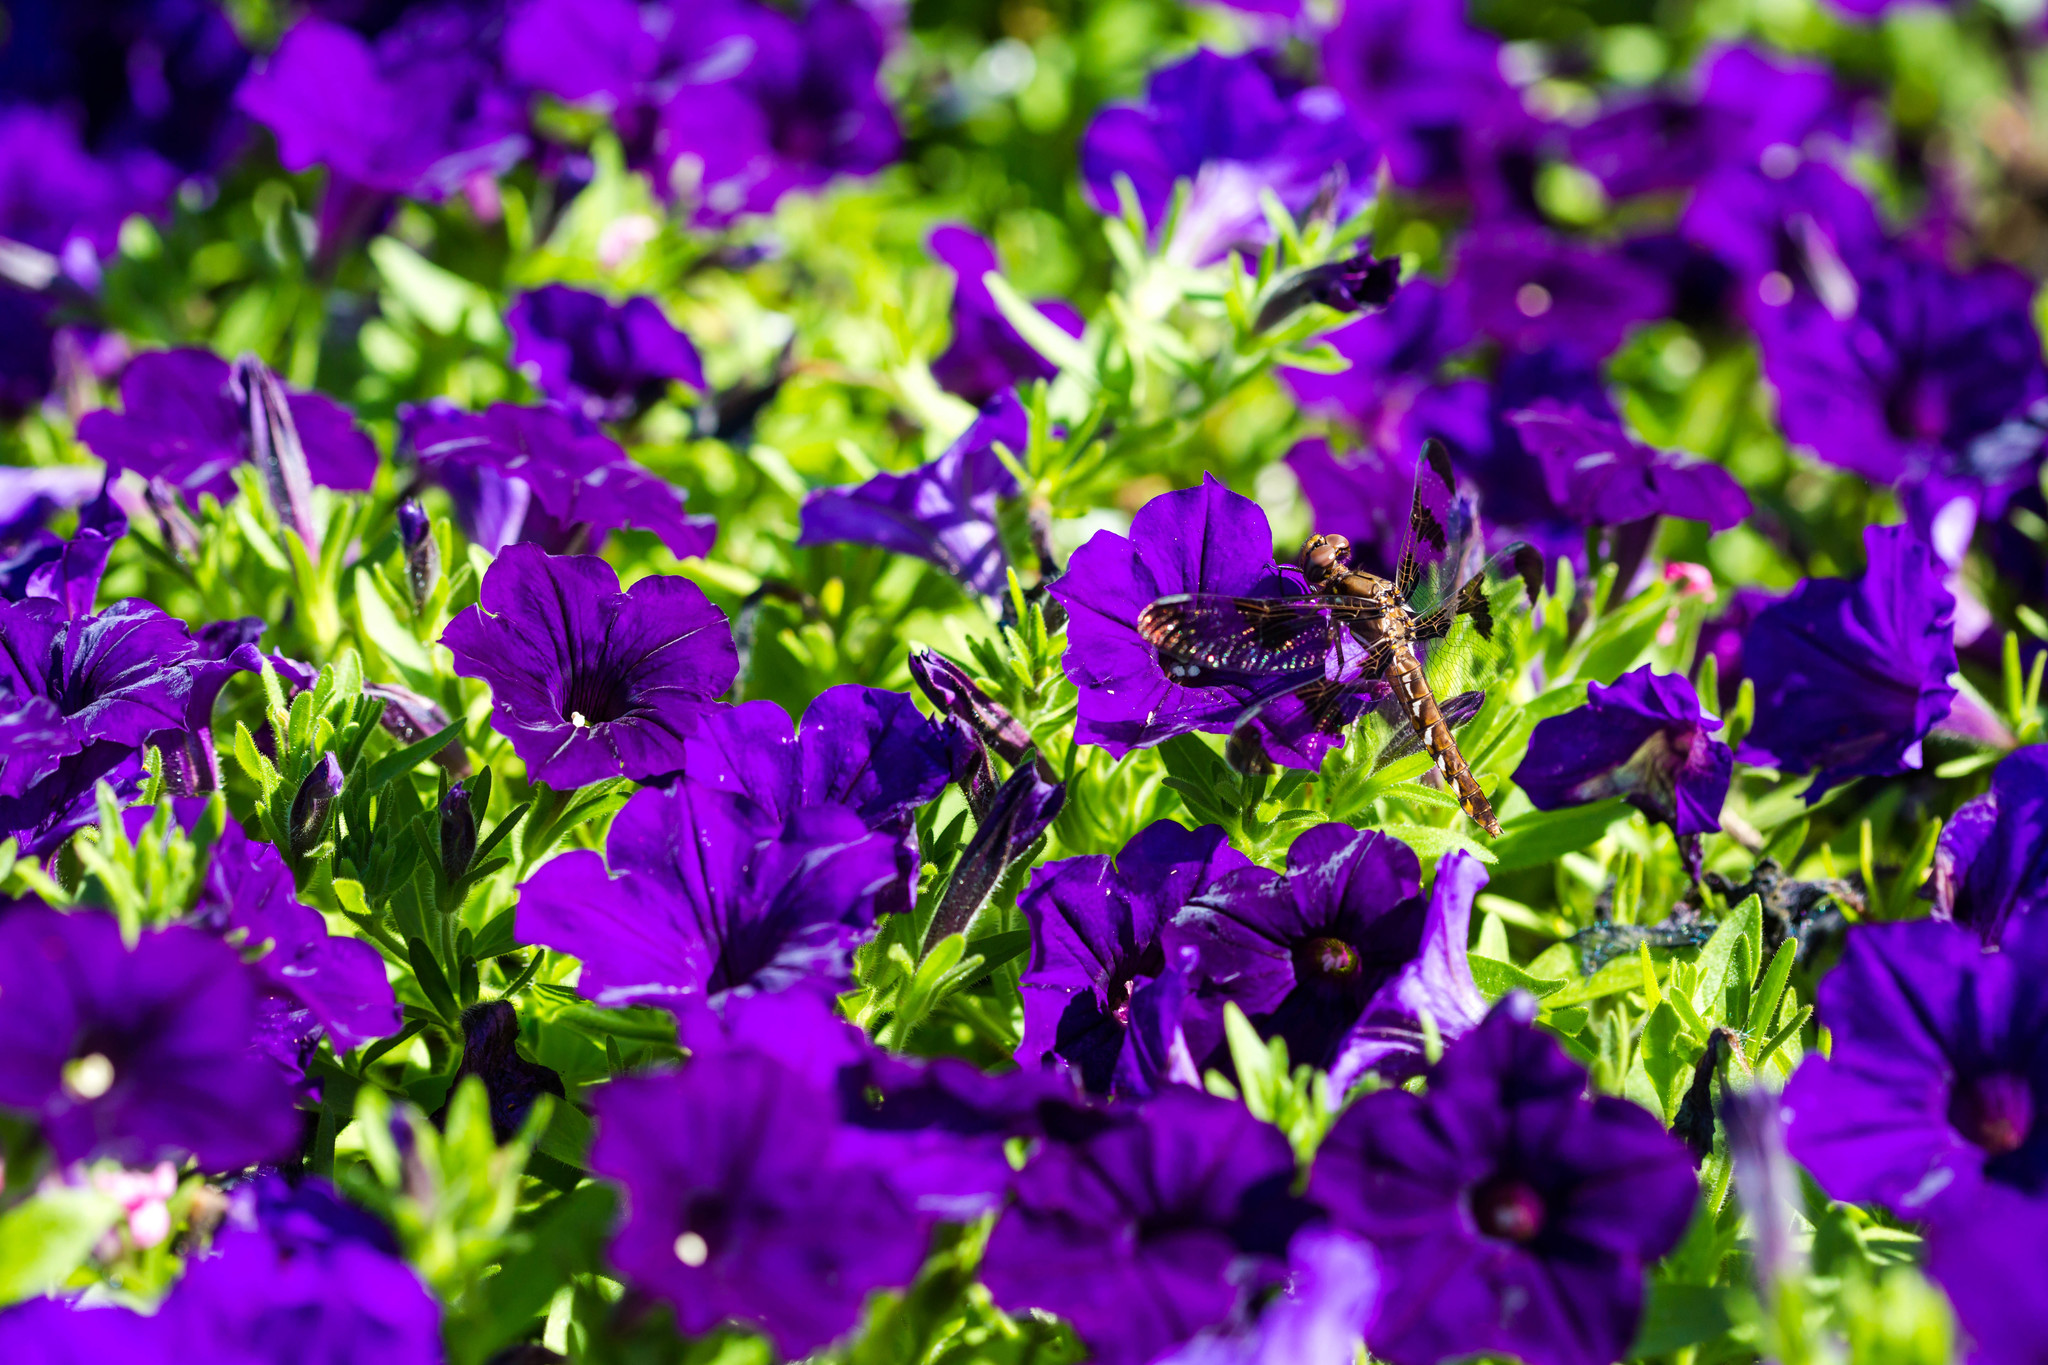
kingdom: Animalia
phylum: Arthropoda
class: Insecta
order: Odonata
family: Libellulidae
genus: Plathemis
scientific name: Plathemis lydia
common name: Common whitetail
